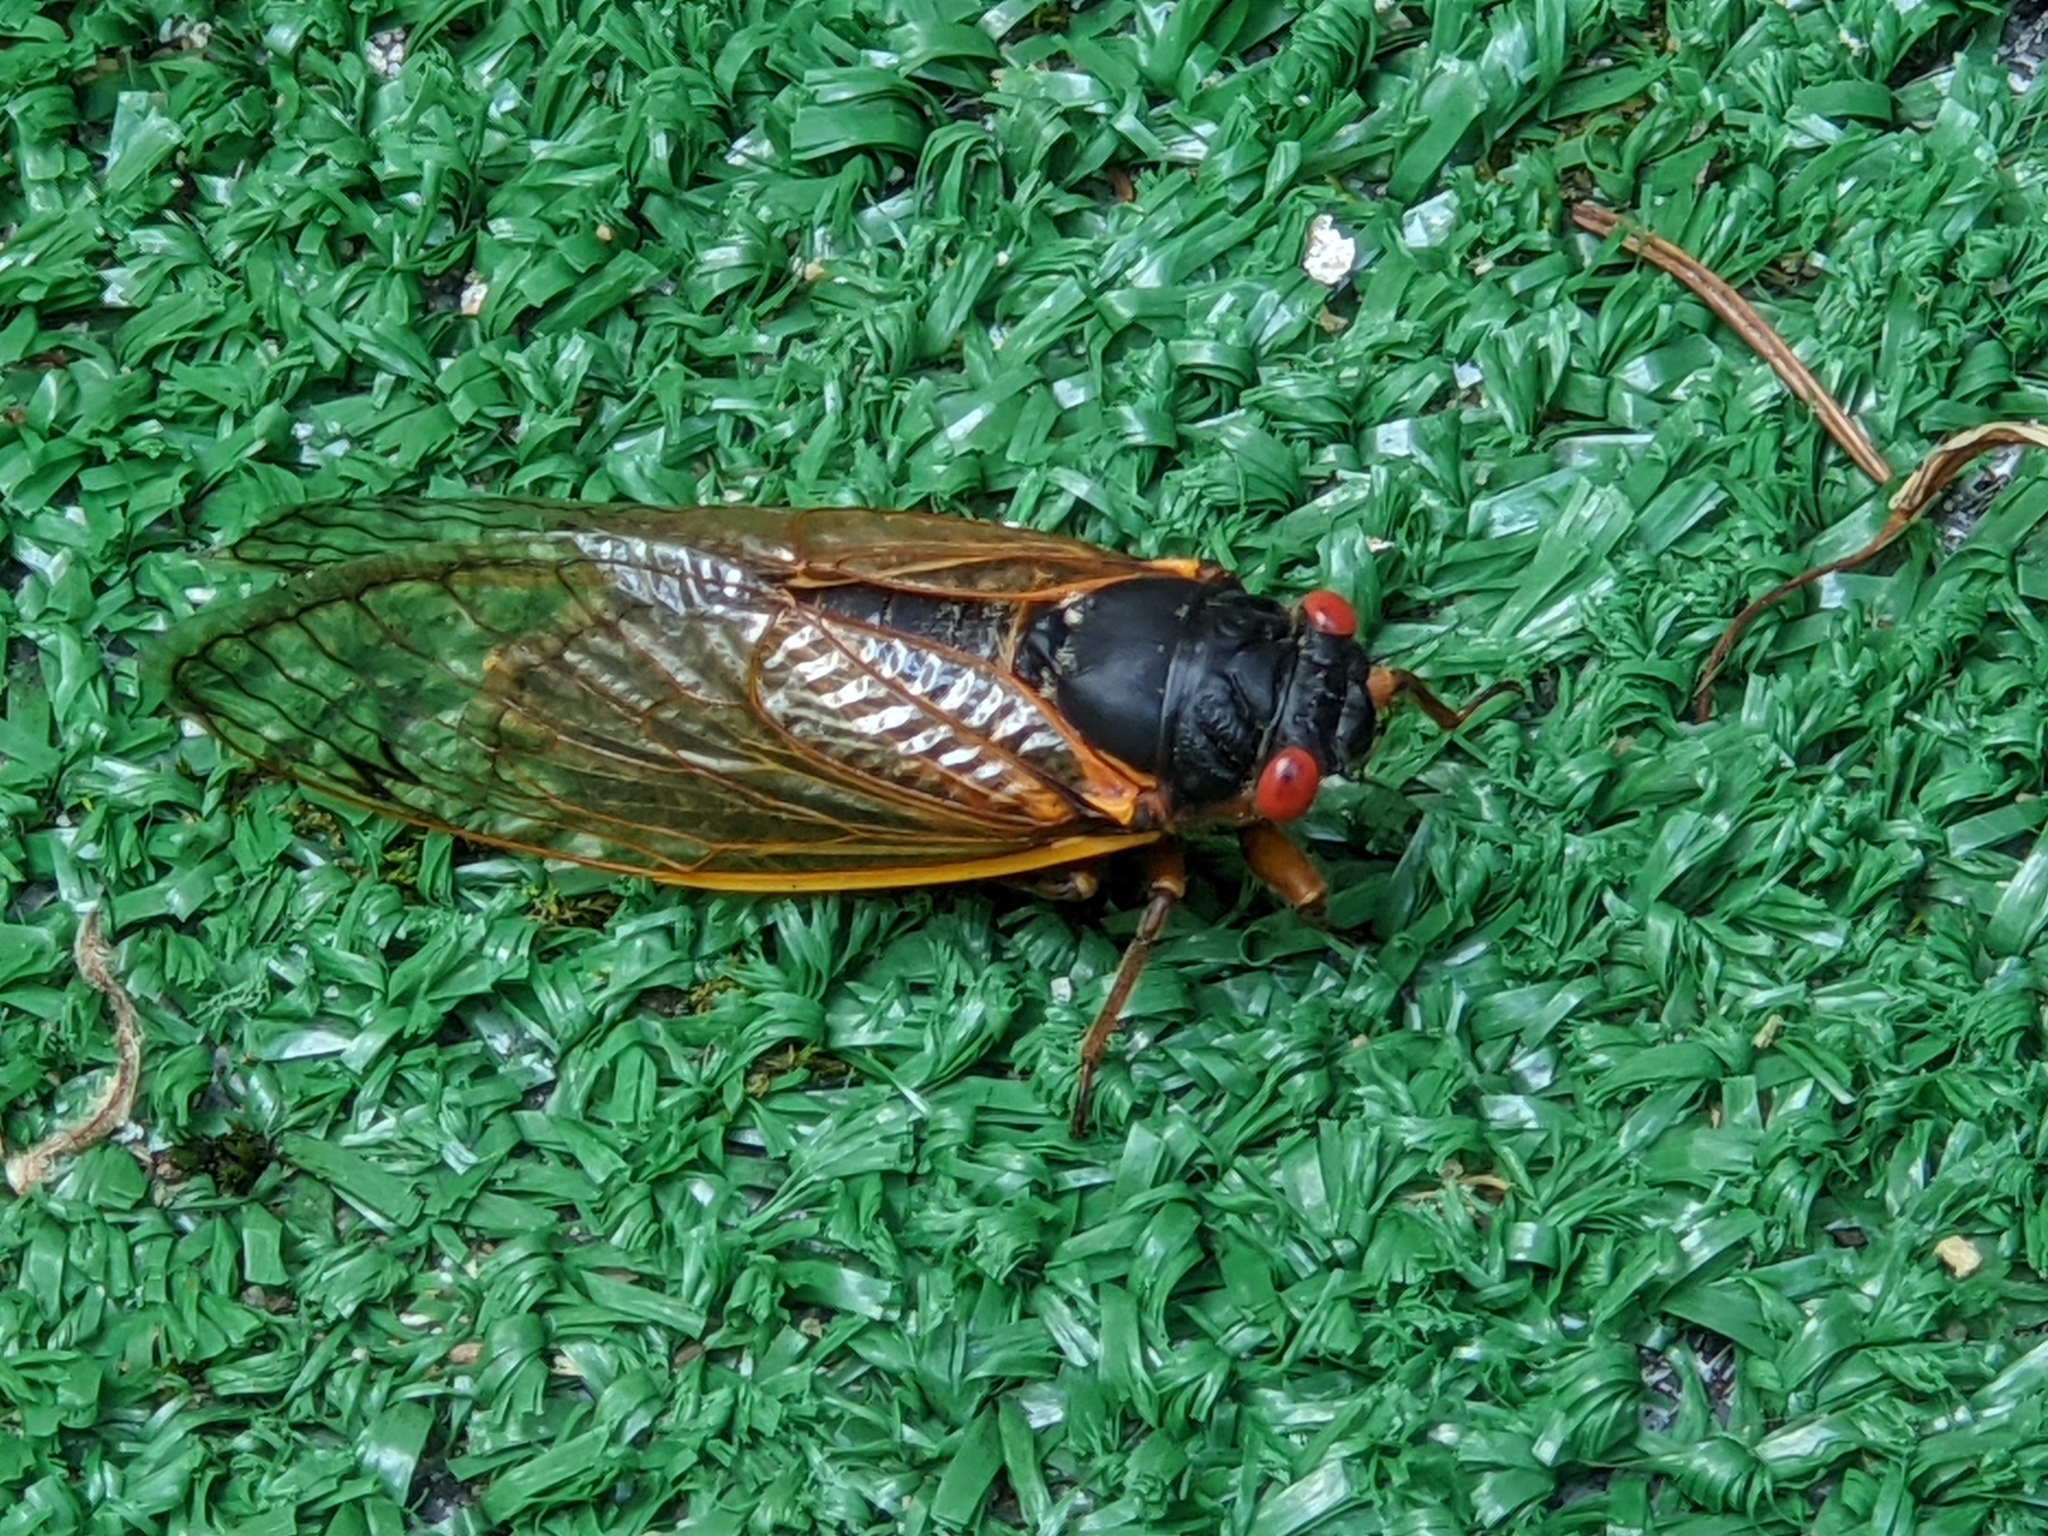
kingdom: Animalia
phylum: Arthropoda
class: Insecta
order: Hemiptera
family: Cicadidae
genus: Magicicada
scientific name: Magicicada septendecim
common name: Periodical cicada
